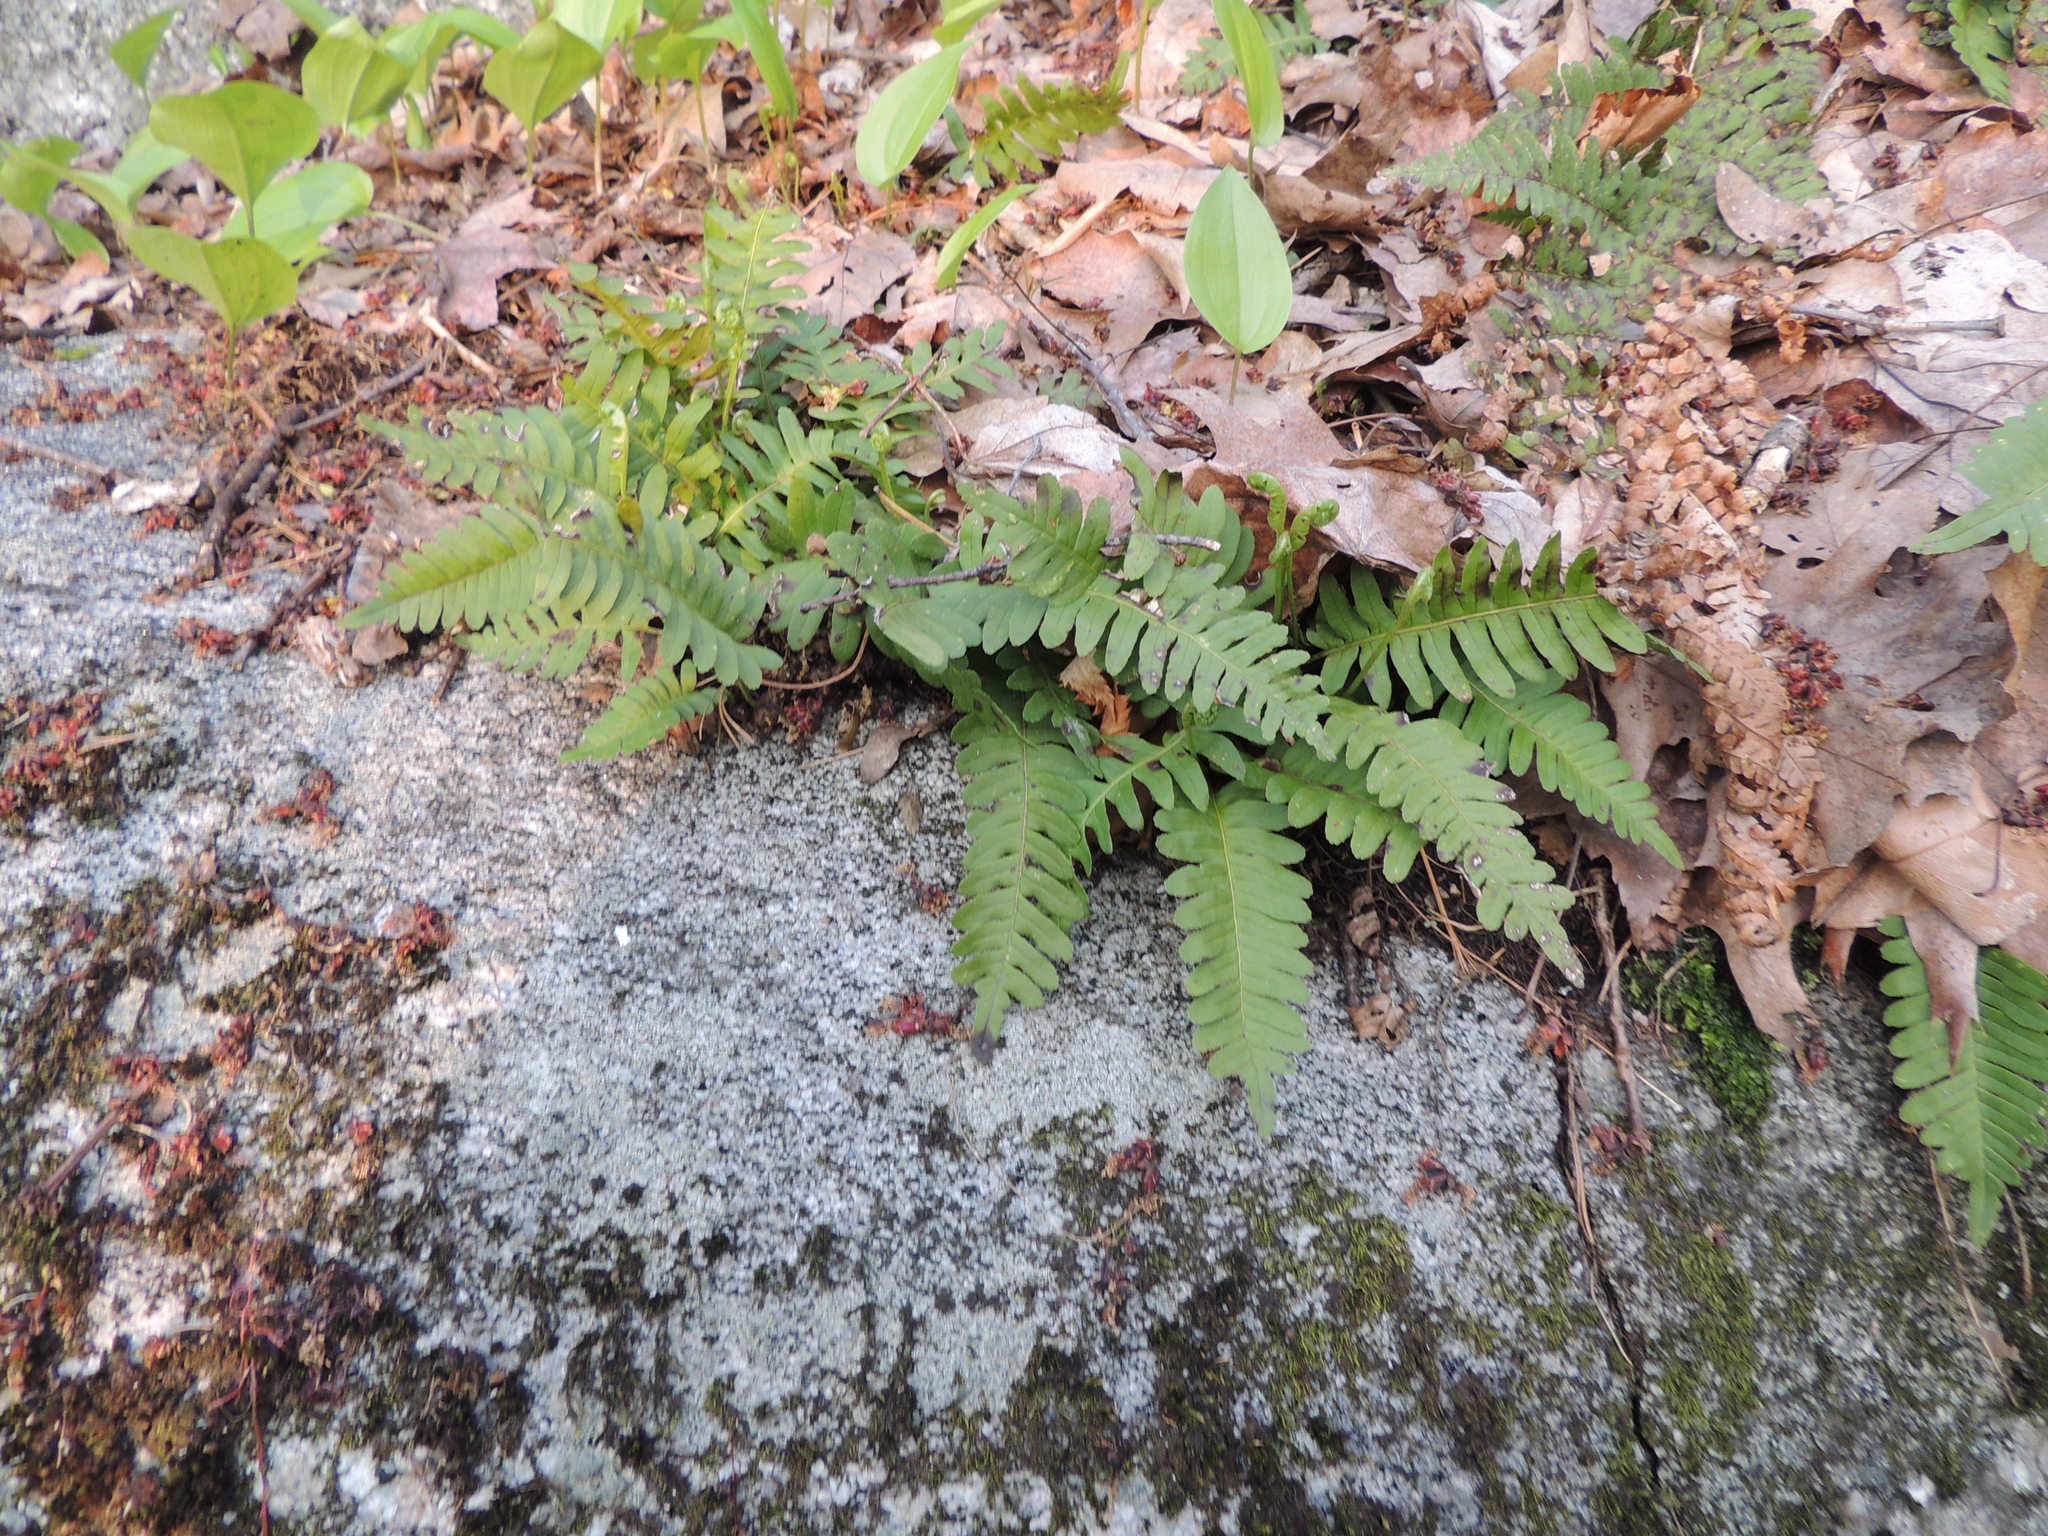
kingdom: Plantae
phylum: Tracheophyta
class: Polypodiopsida
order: Polypodiales
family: Polypodiaceae
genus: Polypodium
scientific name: Polypodium virginianum
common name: American wall fern
